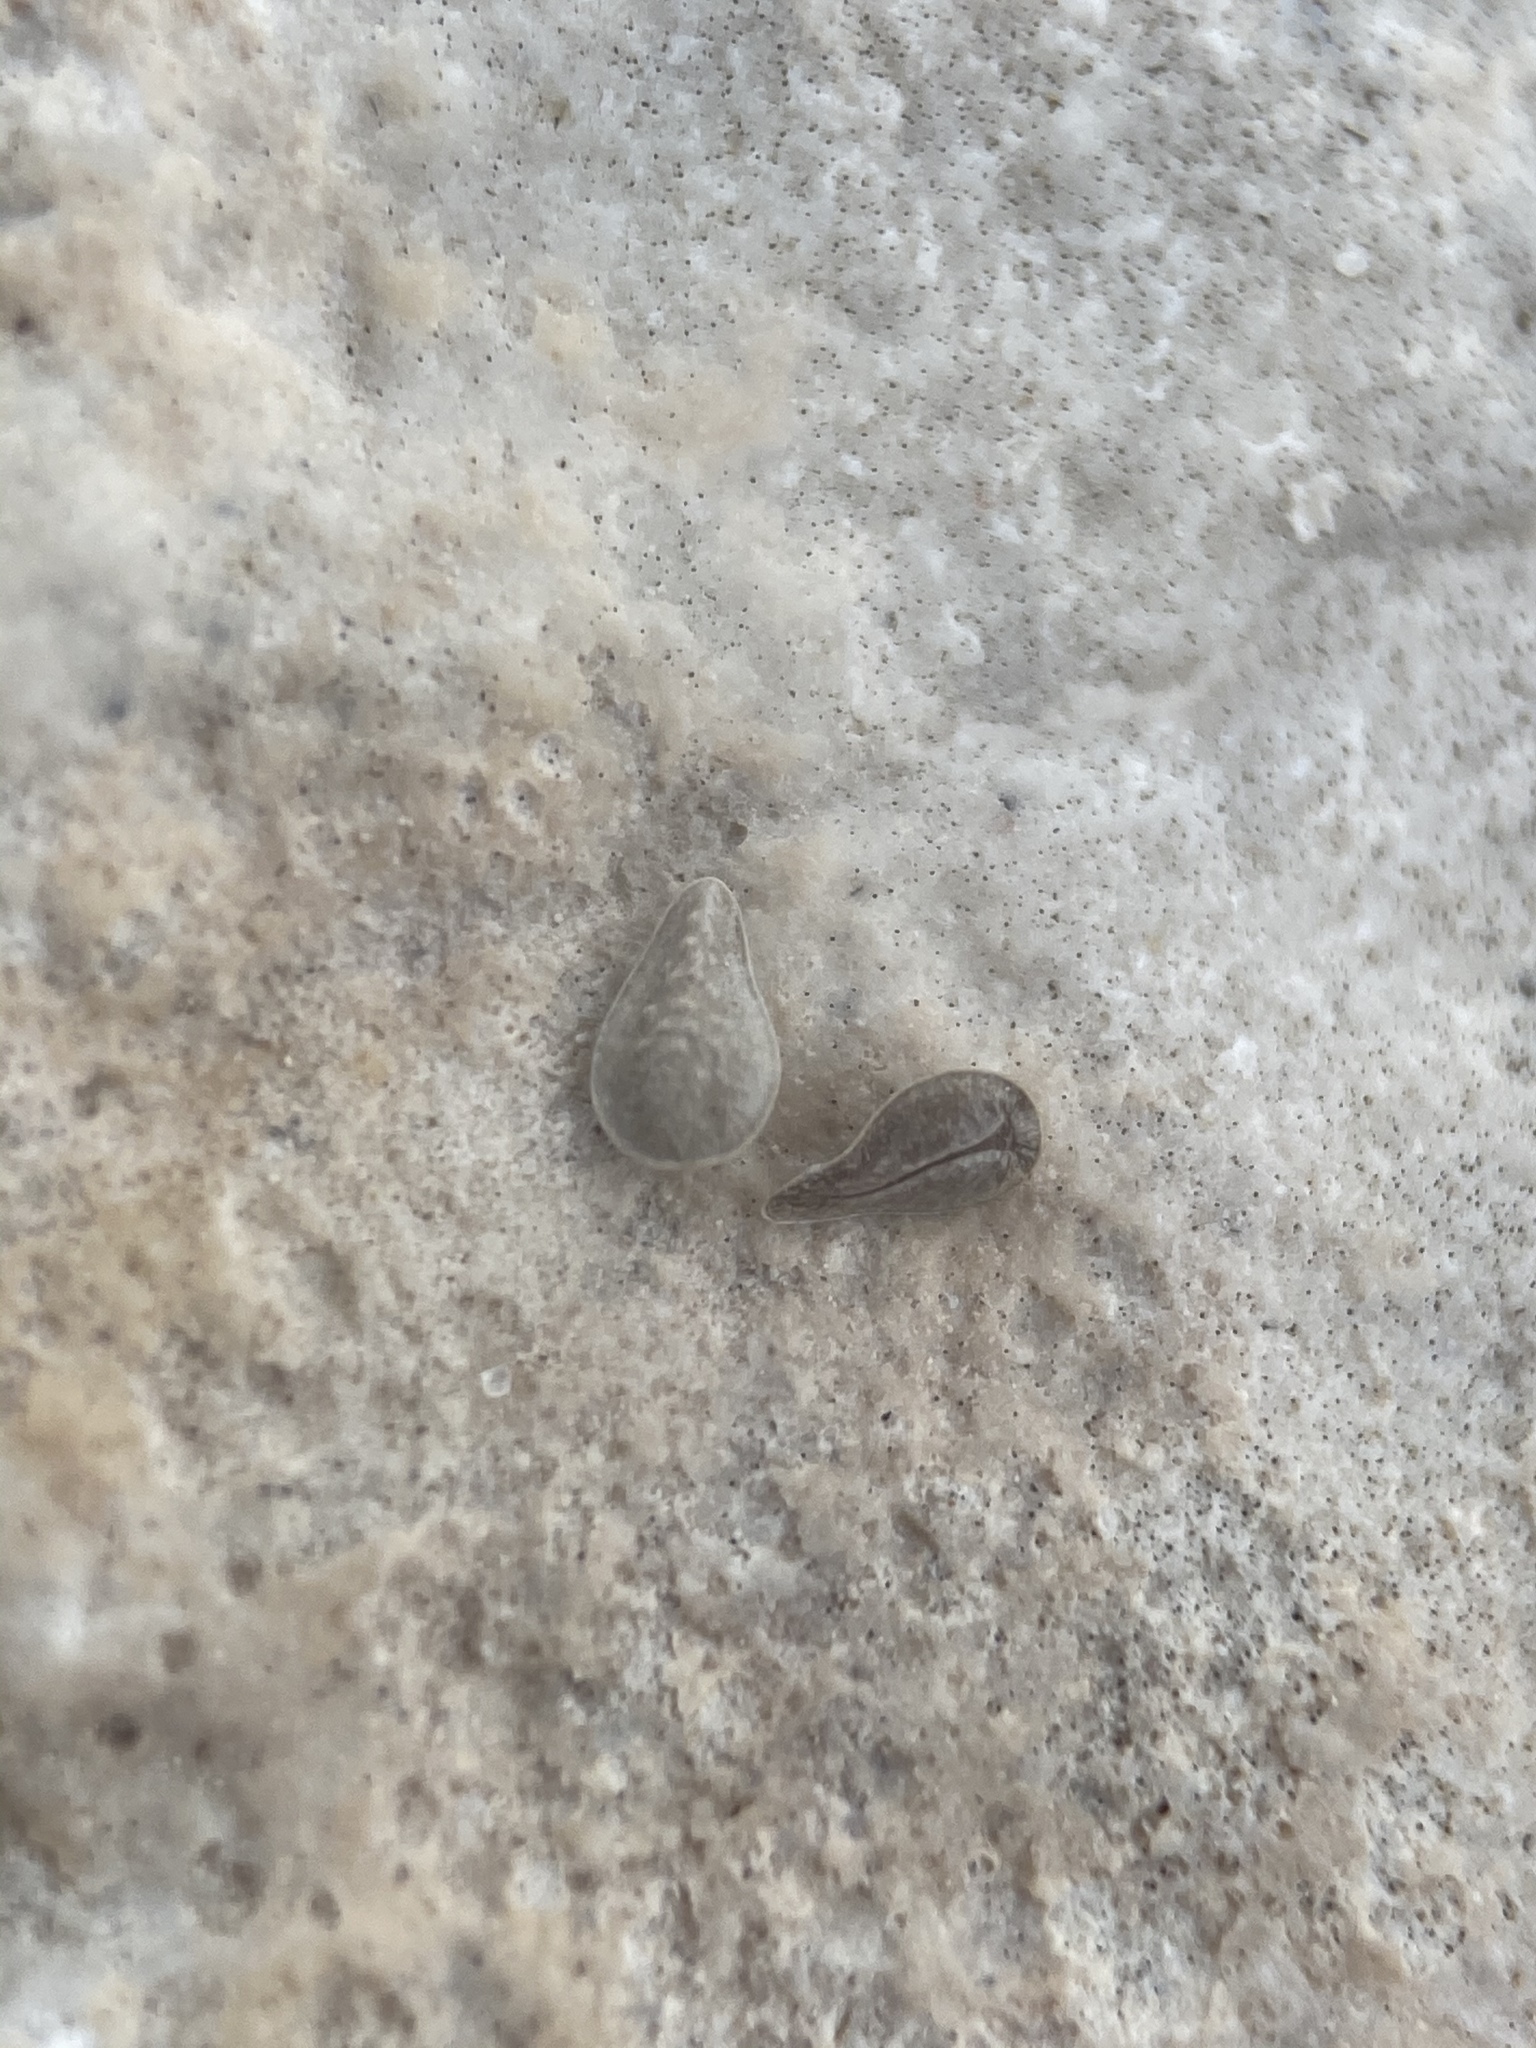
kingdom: Plantae
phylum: Tracheophyta
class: Magnoliopsida
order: Boraginales
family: Boraginaceae
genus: Oreocarya
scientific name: Oreocarya rugulosa
